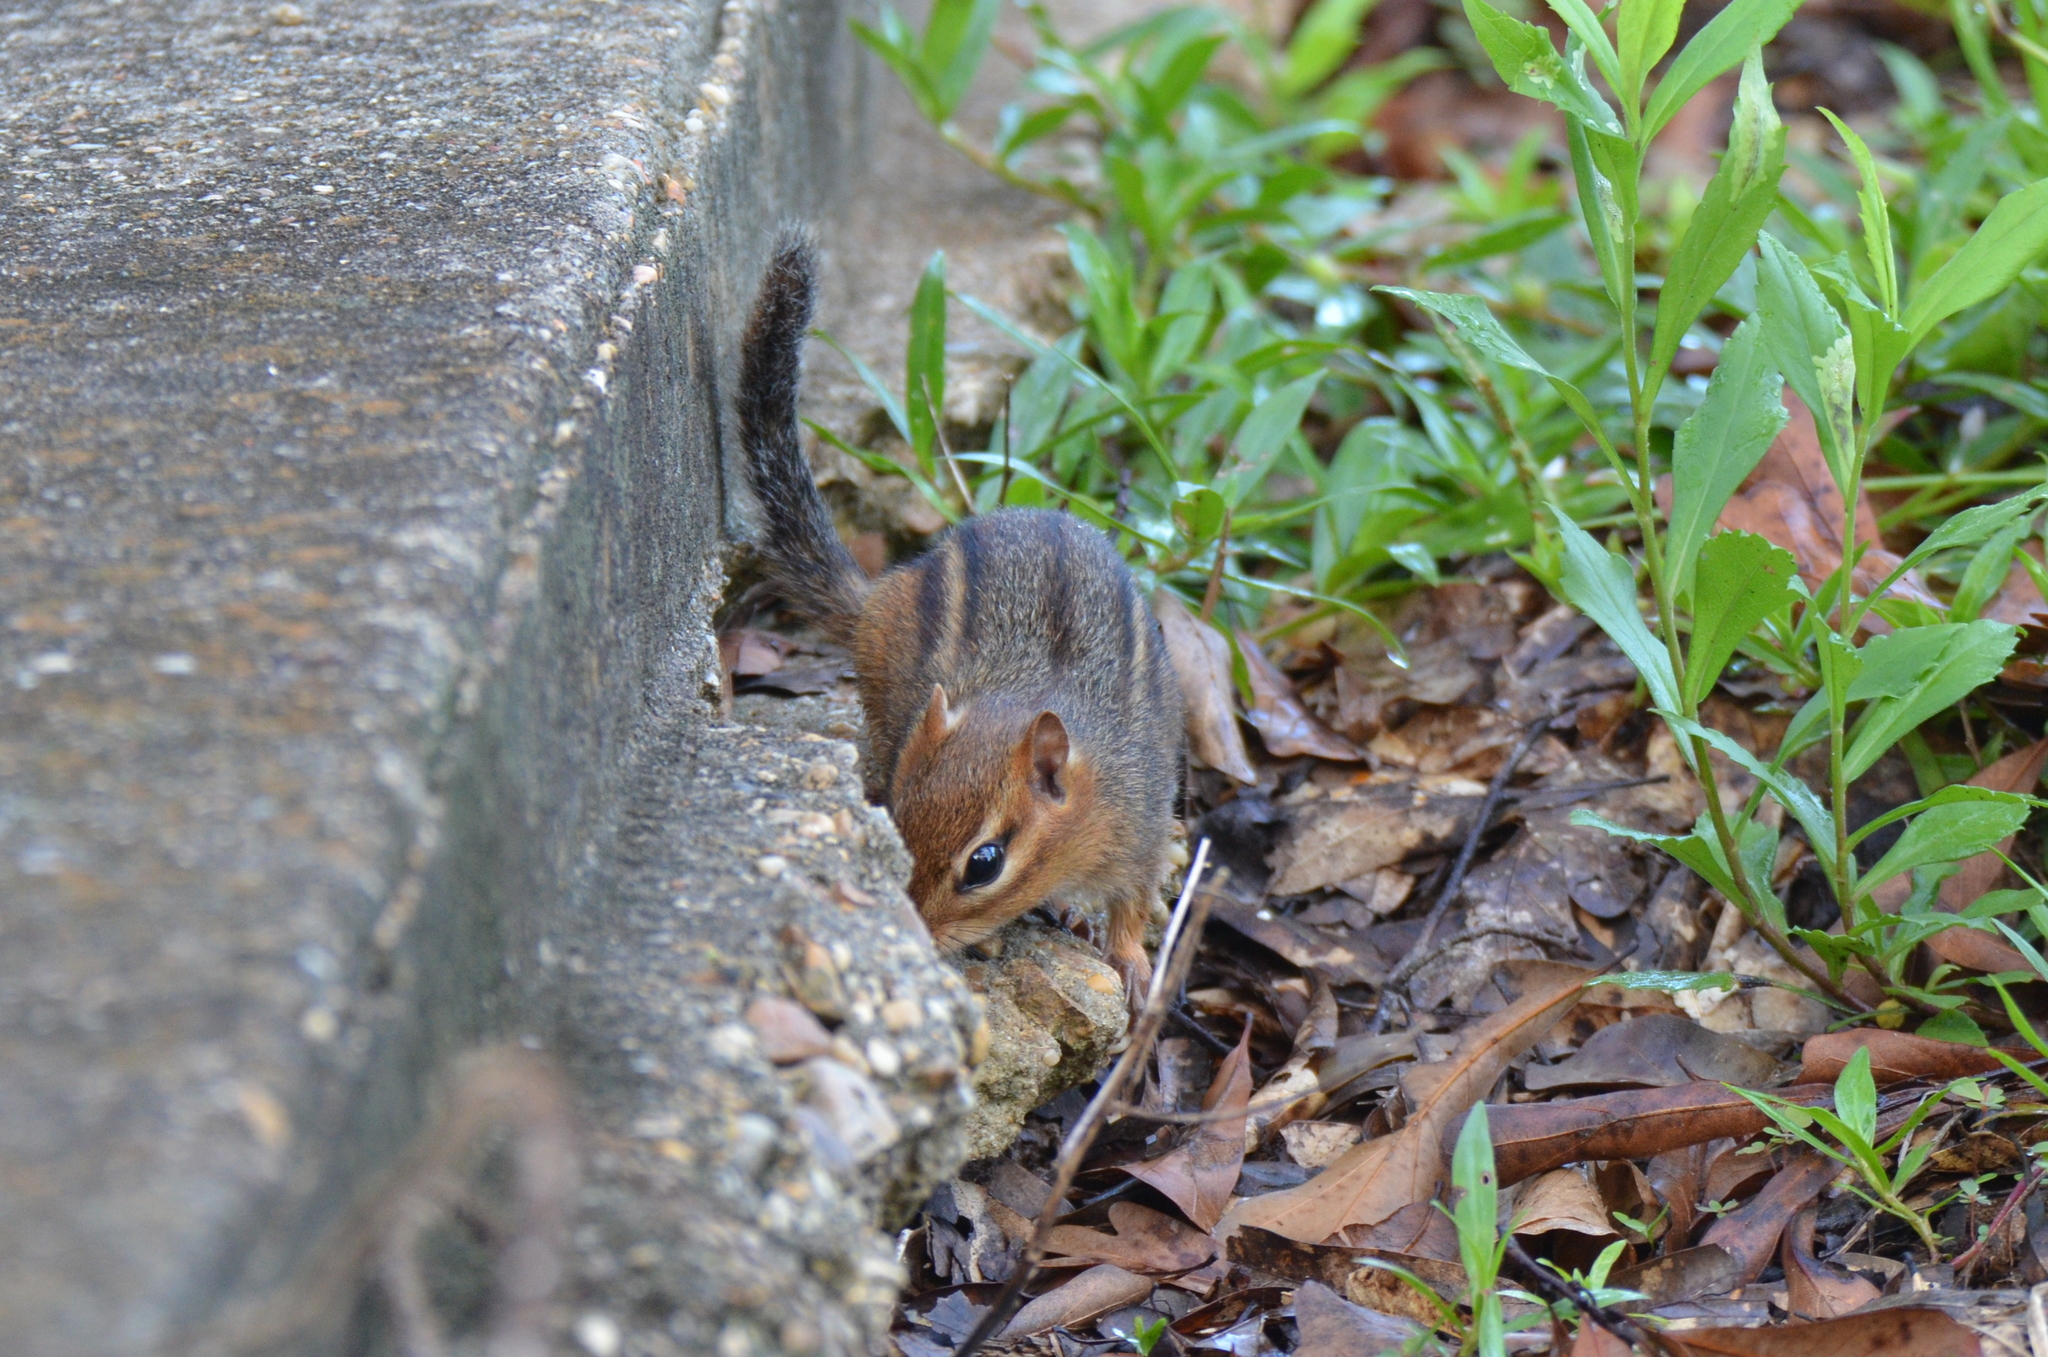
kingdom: Animalia
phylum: Chordata
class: Mammalia
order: Rodentia
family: Sciuridae
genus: Tamias
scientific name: Tamias striatus
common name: Eastern chipmunk
